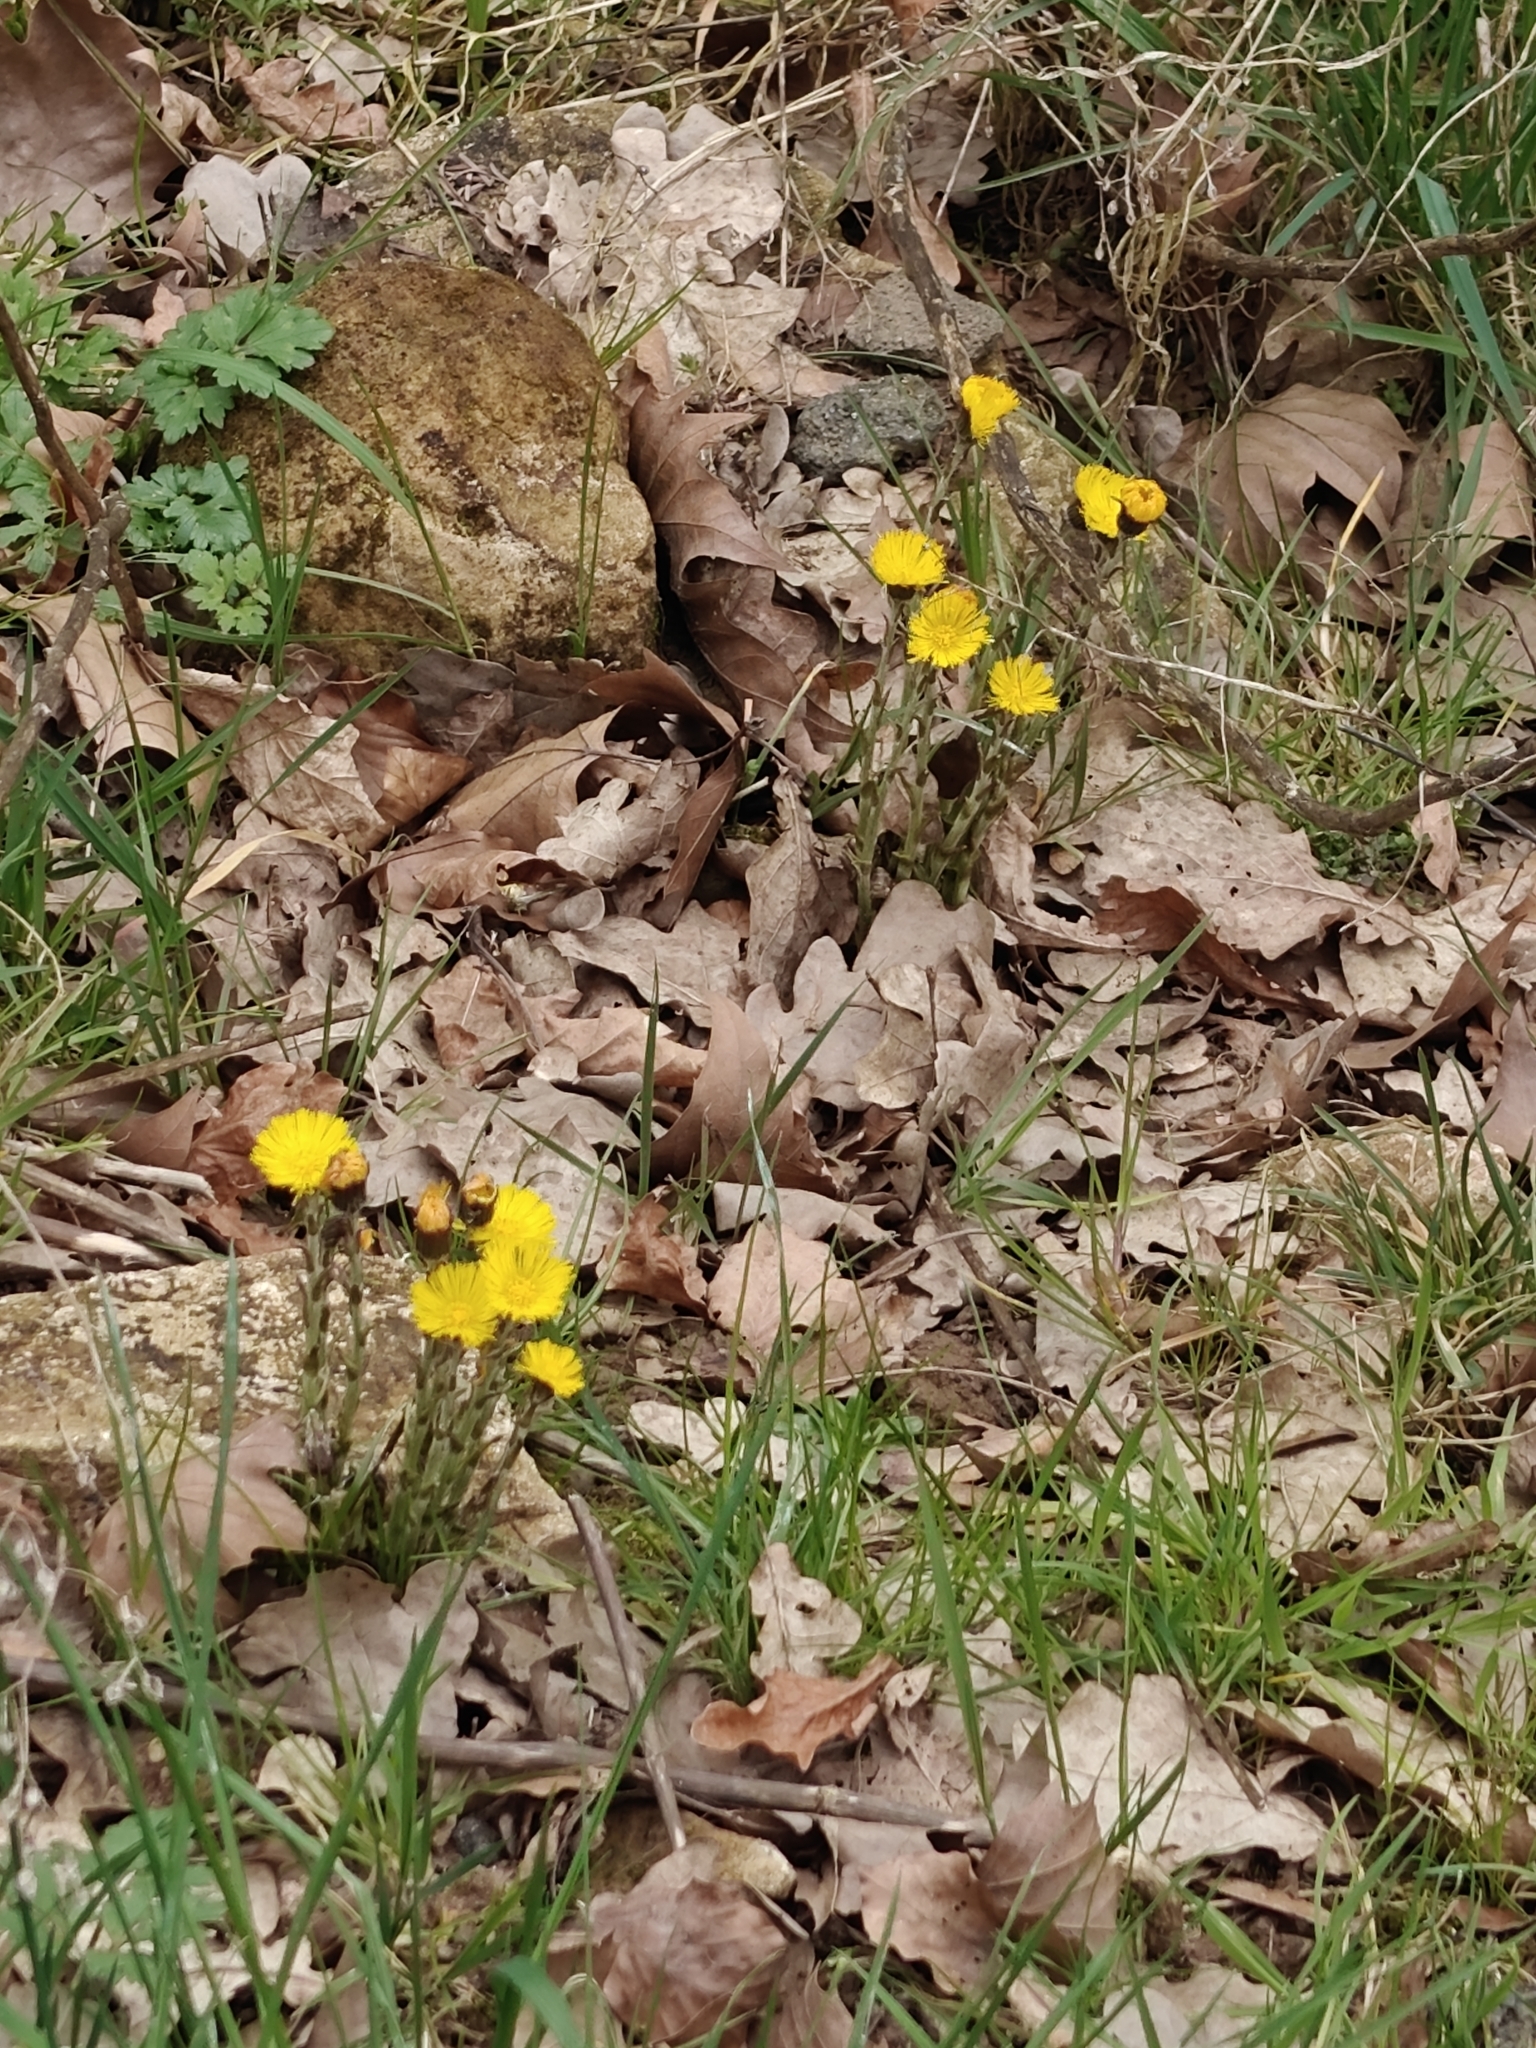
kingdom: Plantae
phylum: Tracheophyta
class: Magnoliopsida
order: Asterales
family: Asteraceae
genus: Tussilago
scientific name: Tussilago farfara
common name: Coltsfoot
